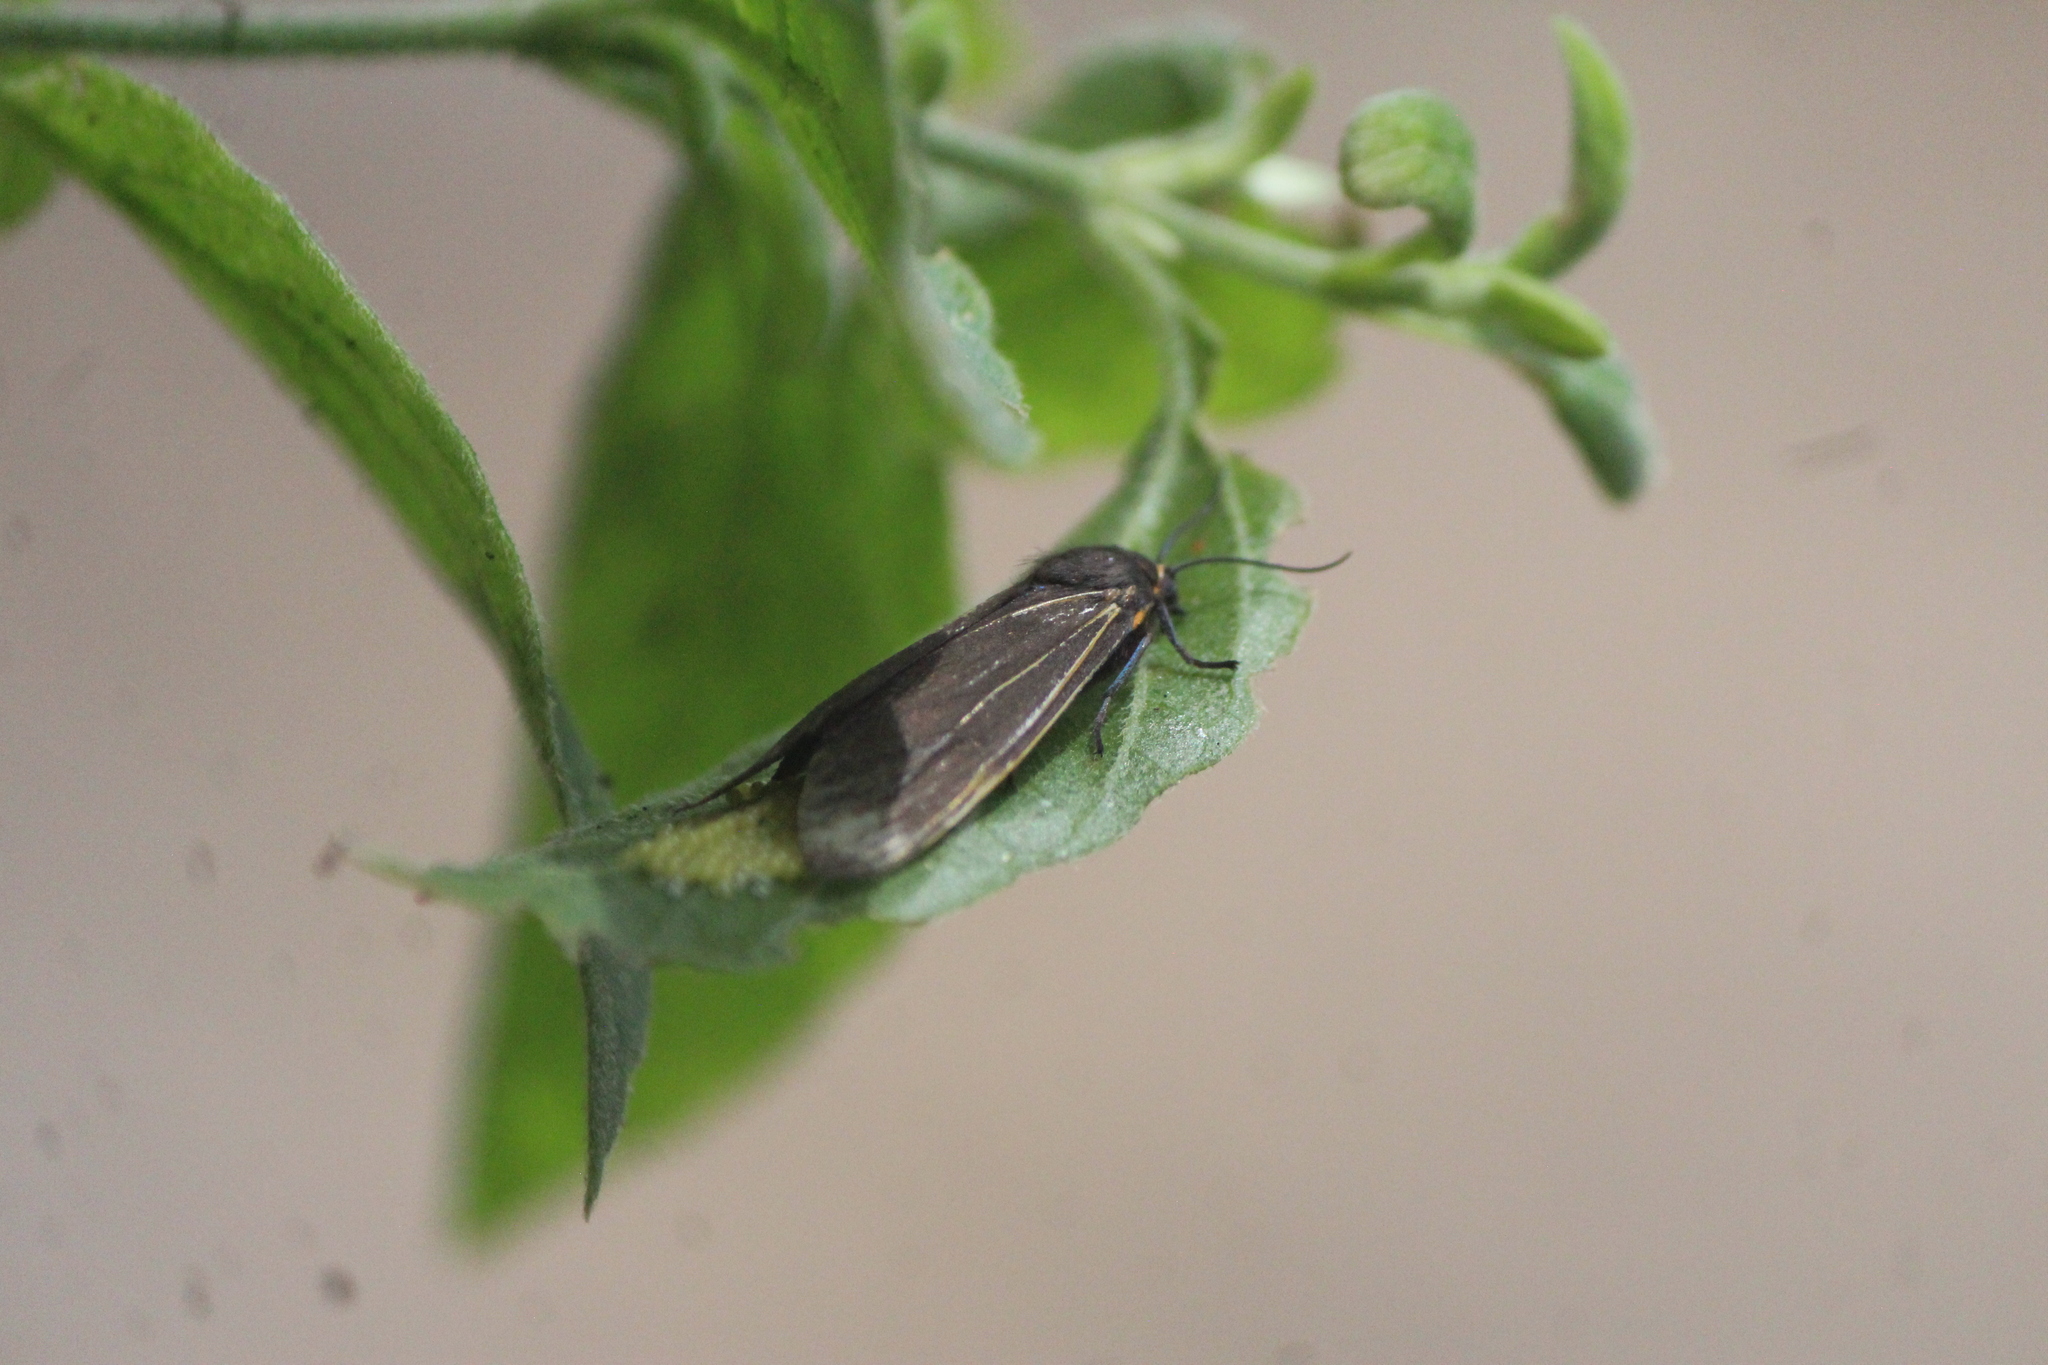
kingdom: Animalia
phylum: Arthropoda
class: Insecta
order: Lepidoptera
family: Erebidae
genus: Allanwatsonia
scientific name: Allanwatsonia hodeva
